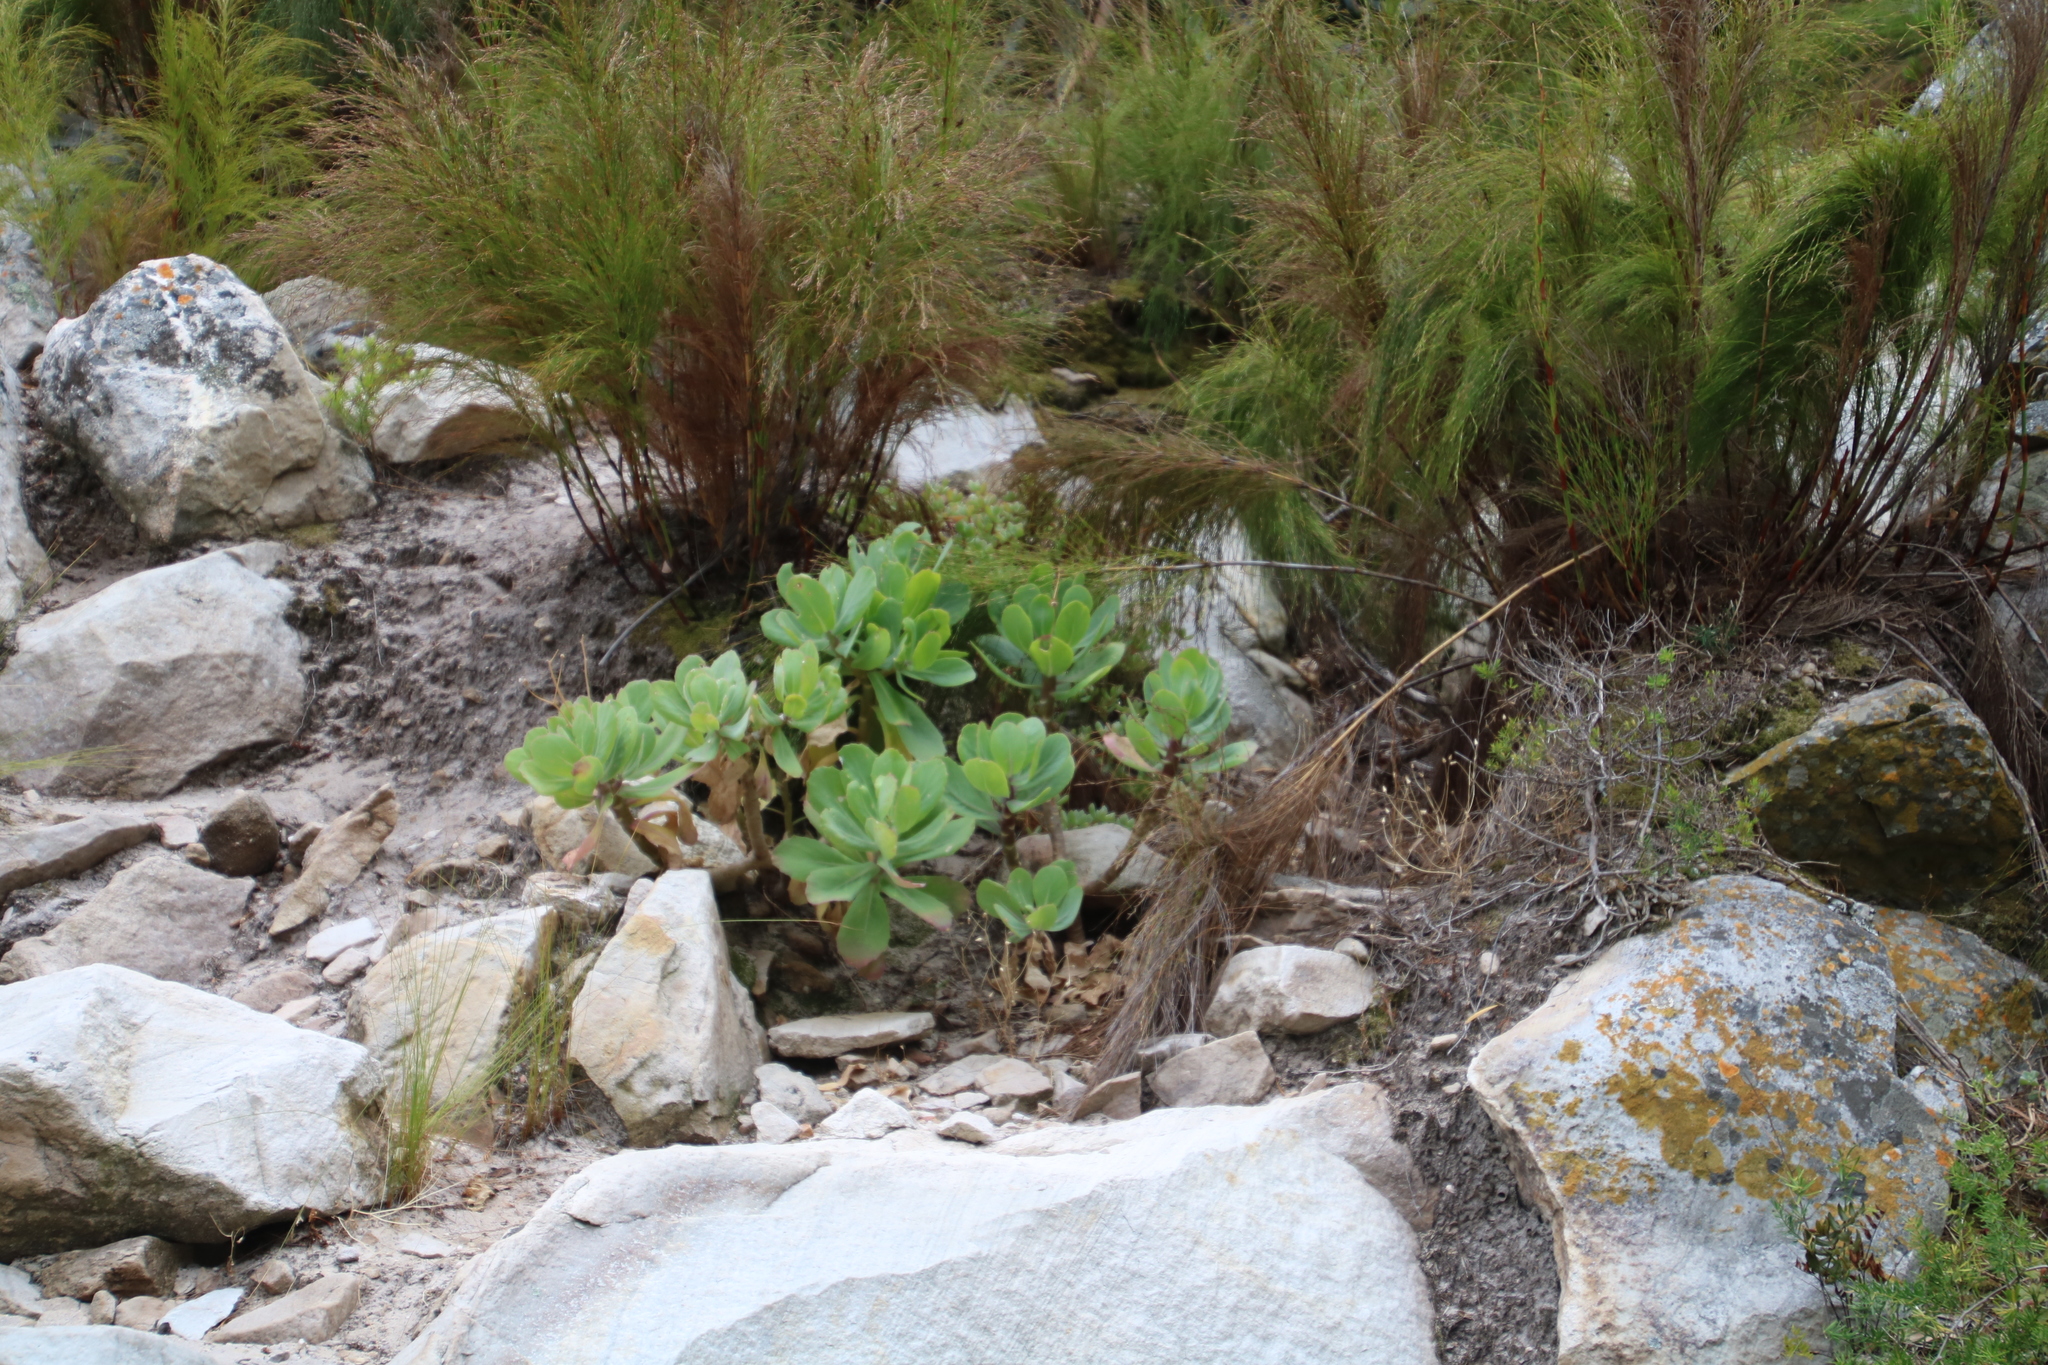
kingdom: Plantae
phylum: Tracheophyta
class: Magnoliopsida
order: Asterales
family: Asteraceae
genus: Othonna
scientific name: Othonna dentata
